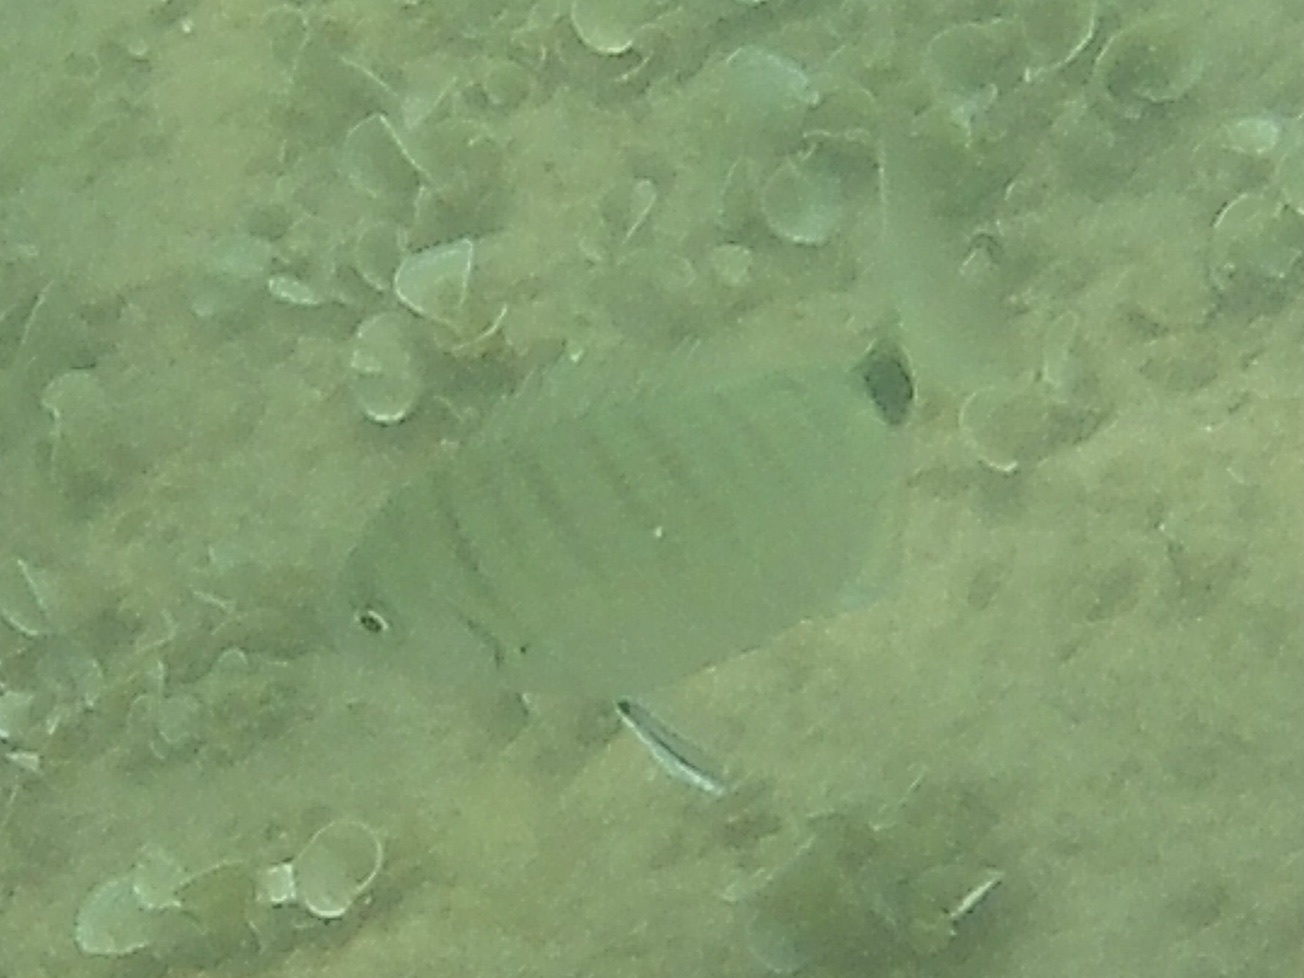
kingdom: Animalia
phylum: Chordata
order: Perciformes
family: Sparidae
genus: Diplodus
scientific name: Diplodus sargus
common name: White seabream
